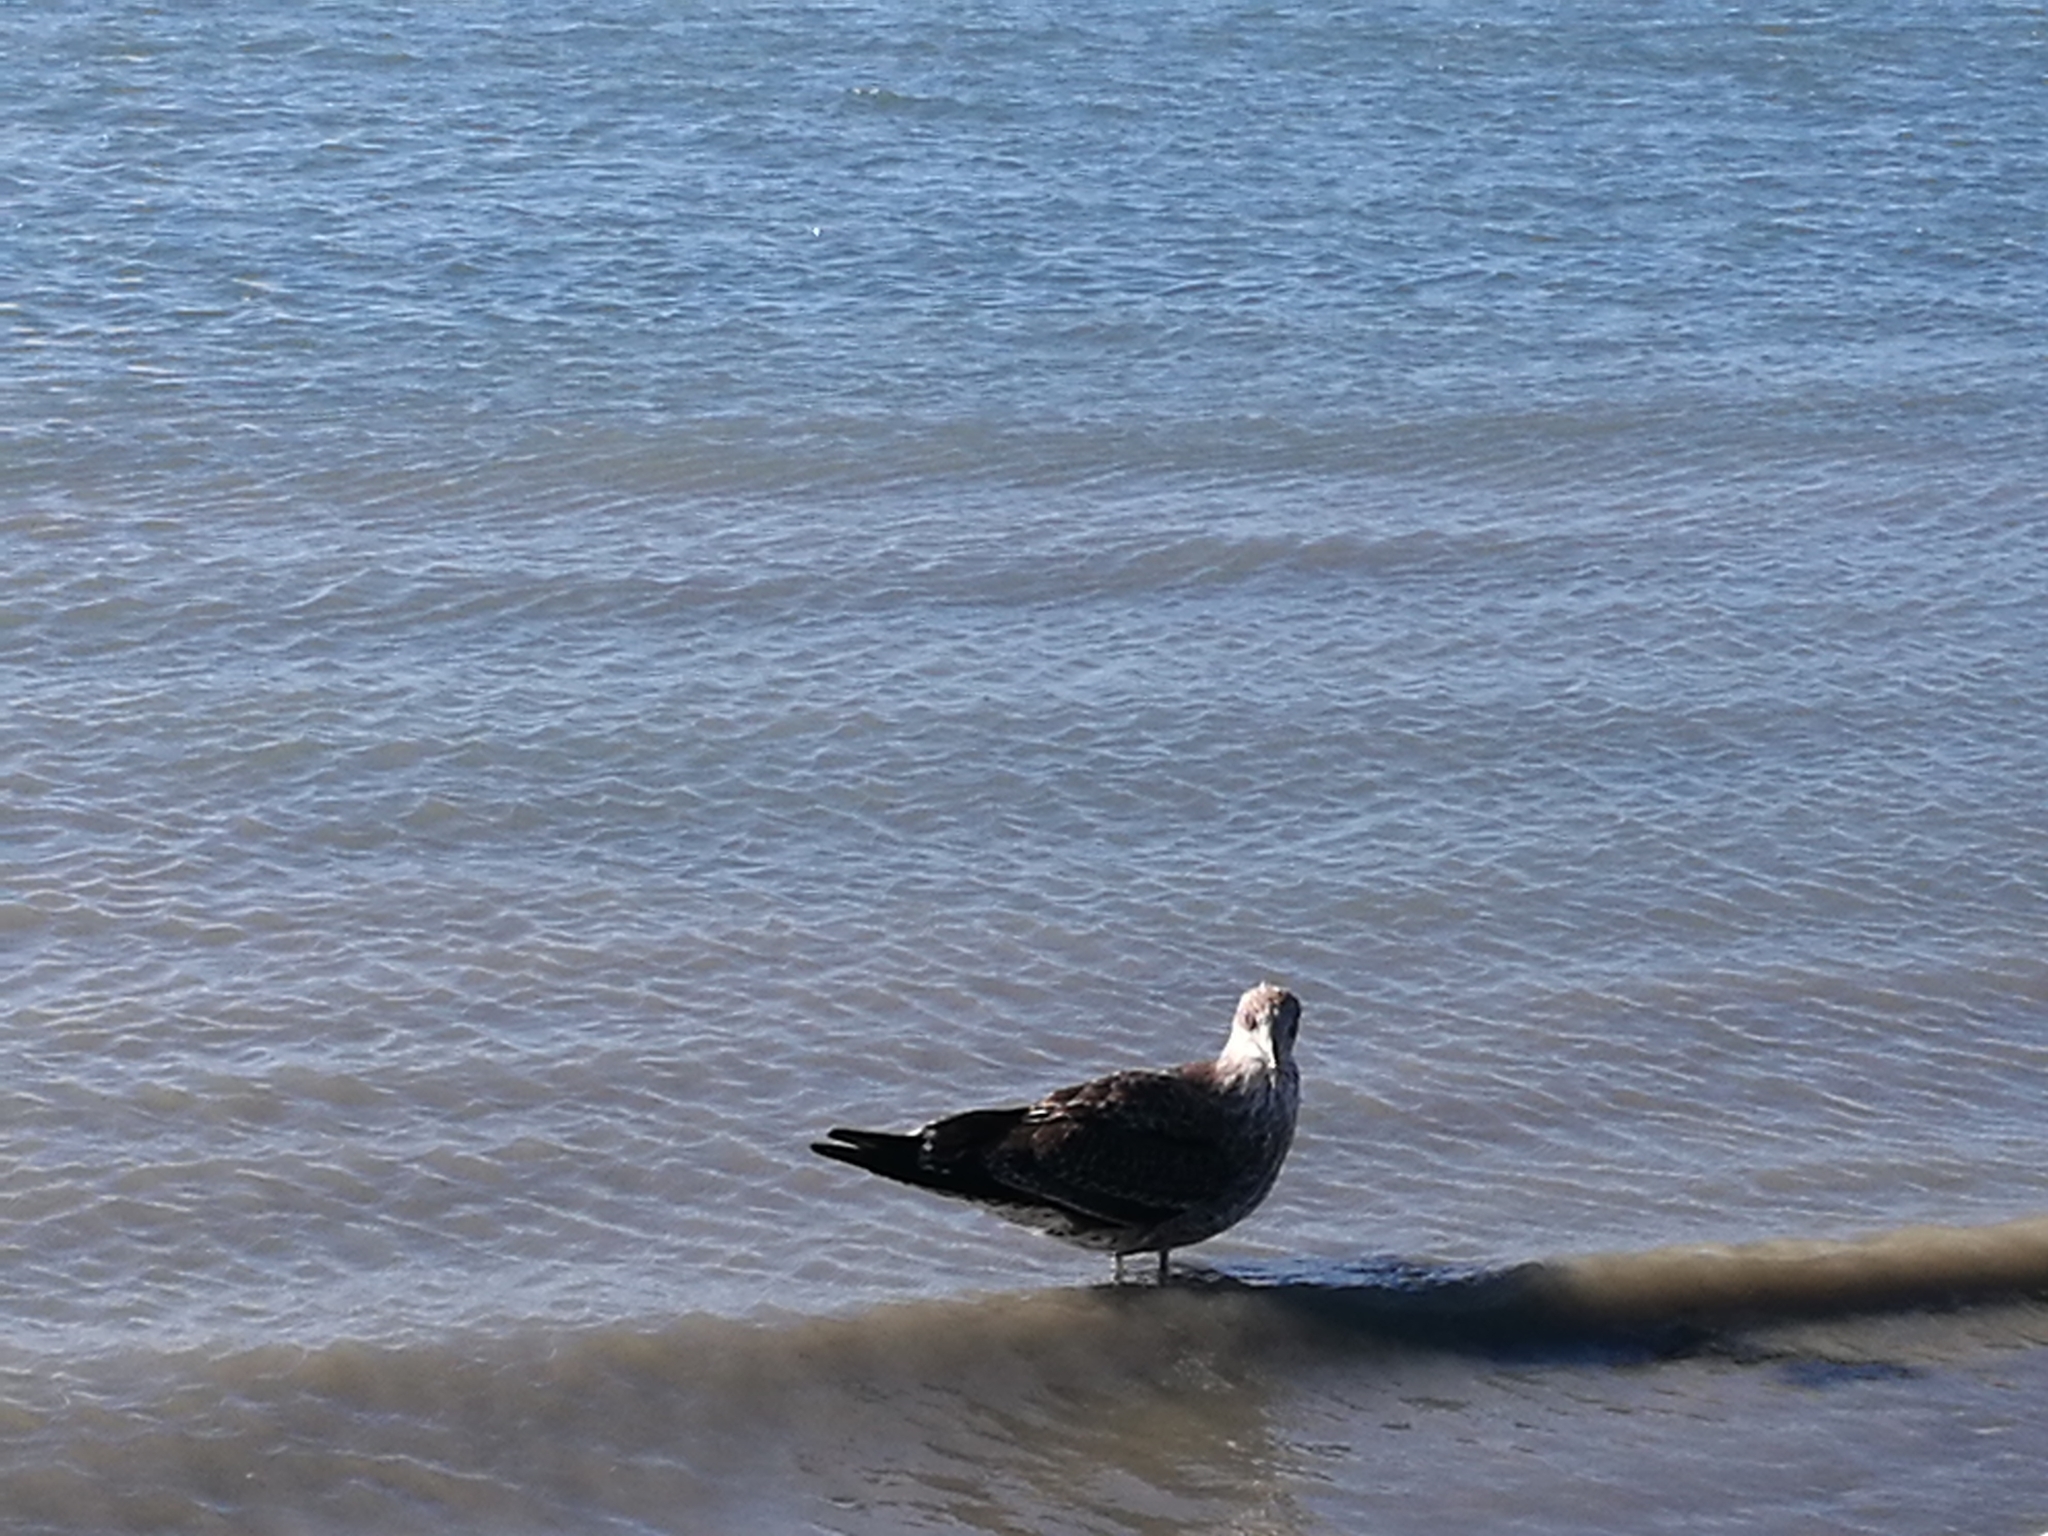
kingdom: Animalia
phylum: Chordata
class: Aves
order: Charadriiformes
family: Laridae
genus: Larus
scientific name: Larus dominicanus
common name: Kelp gull
